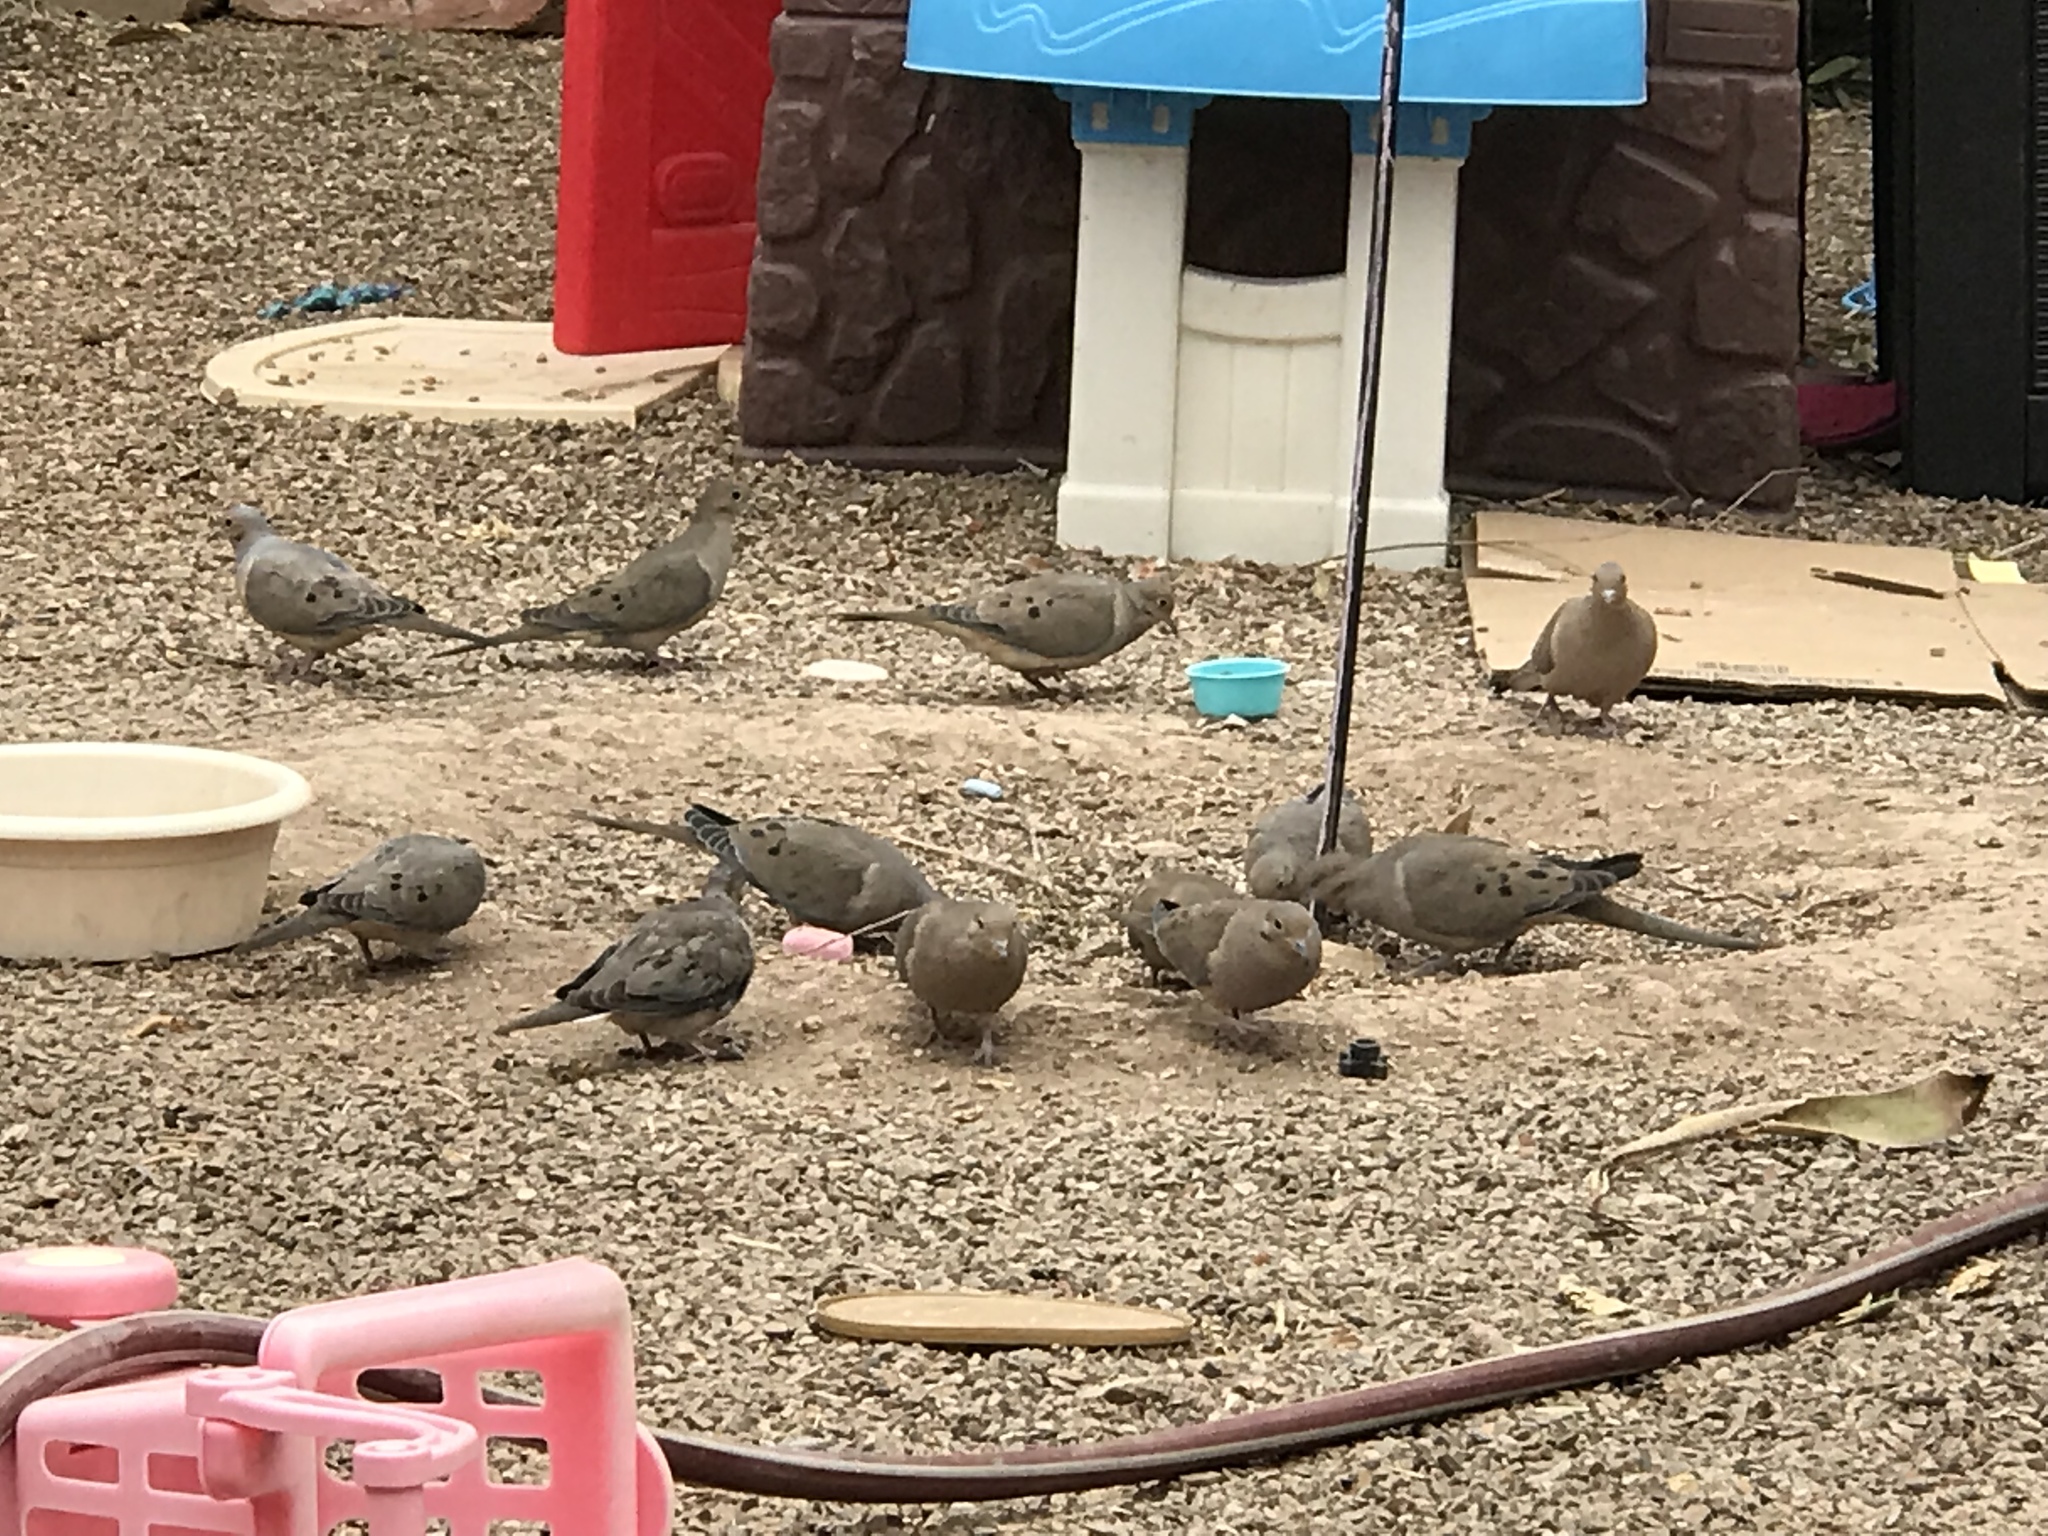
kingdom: Animalia
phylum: Chordata
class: Aves
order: Columbiformes
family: Columbidae
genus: Zenaida
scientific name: Zenaida macroura
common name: Mourning dove
